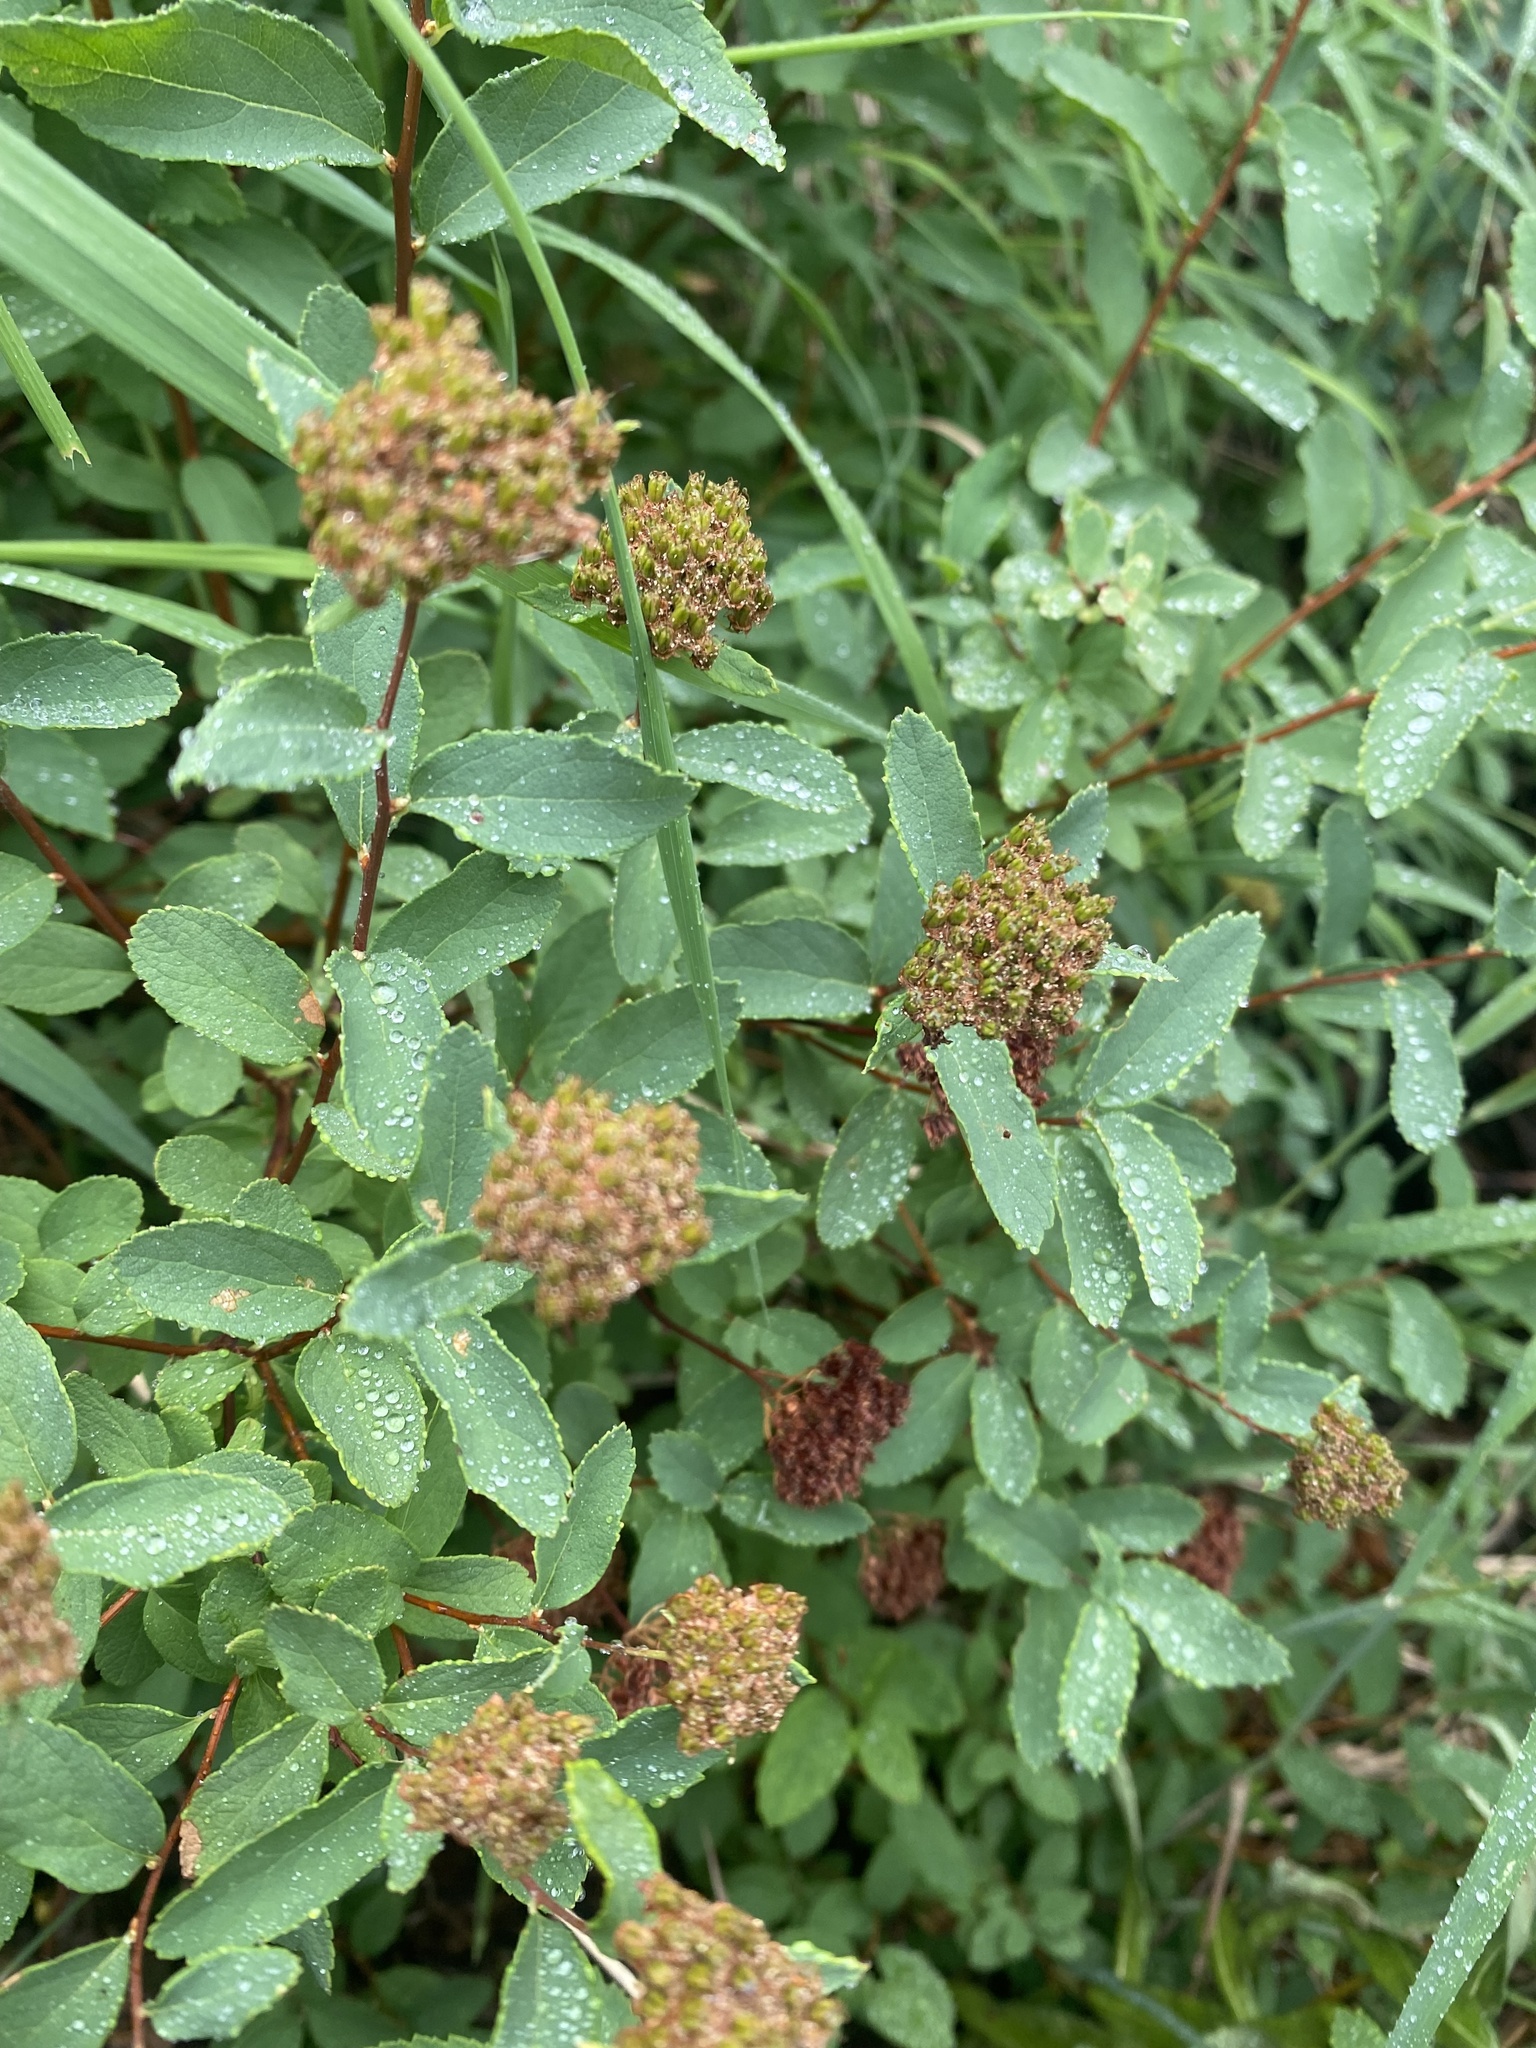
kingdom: Plantae
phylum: Tracheophyta
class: Magnoliopsida
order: Rosales
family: Rosaceae
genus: Spiraea
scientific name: Spiraea betulifolia
